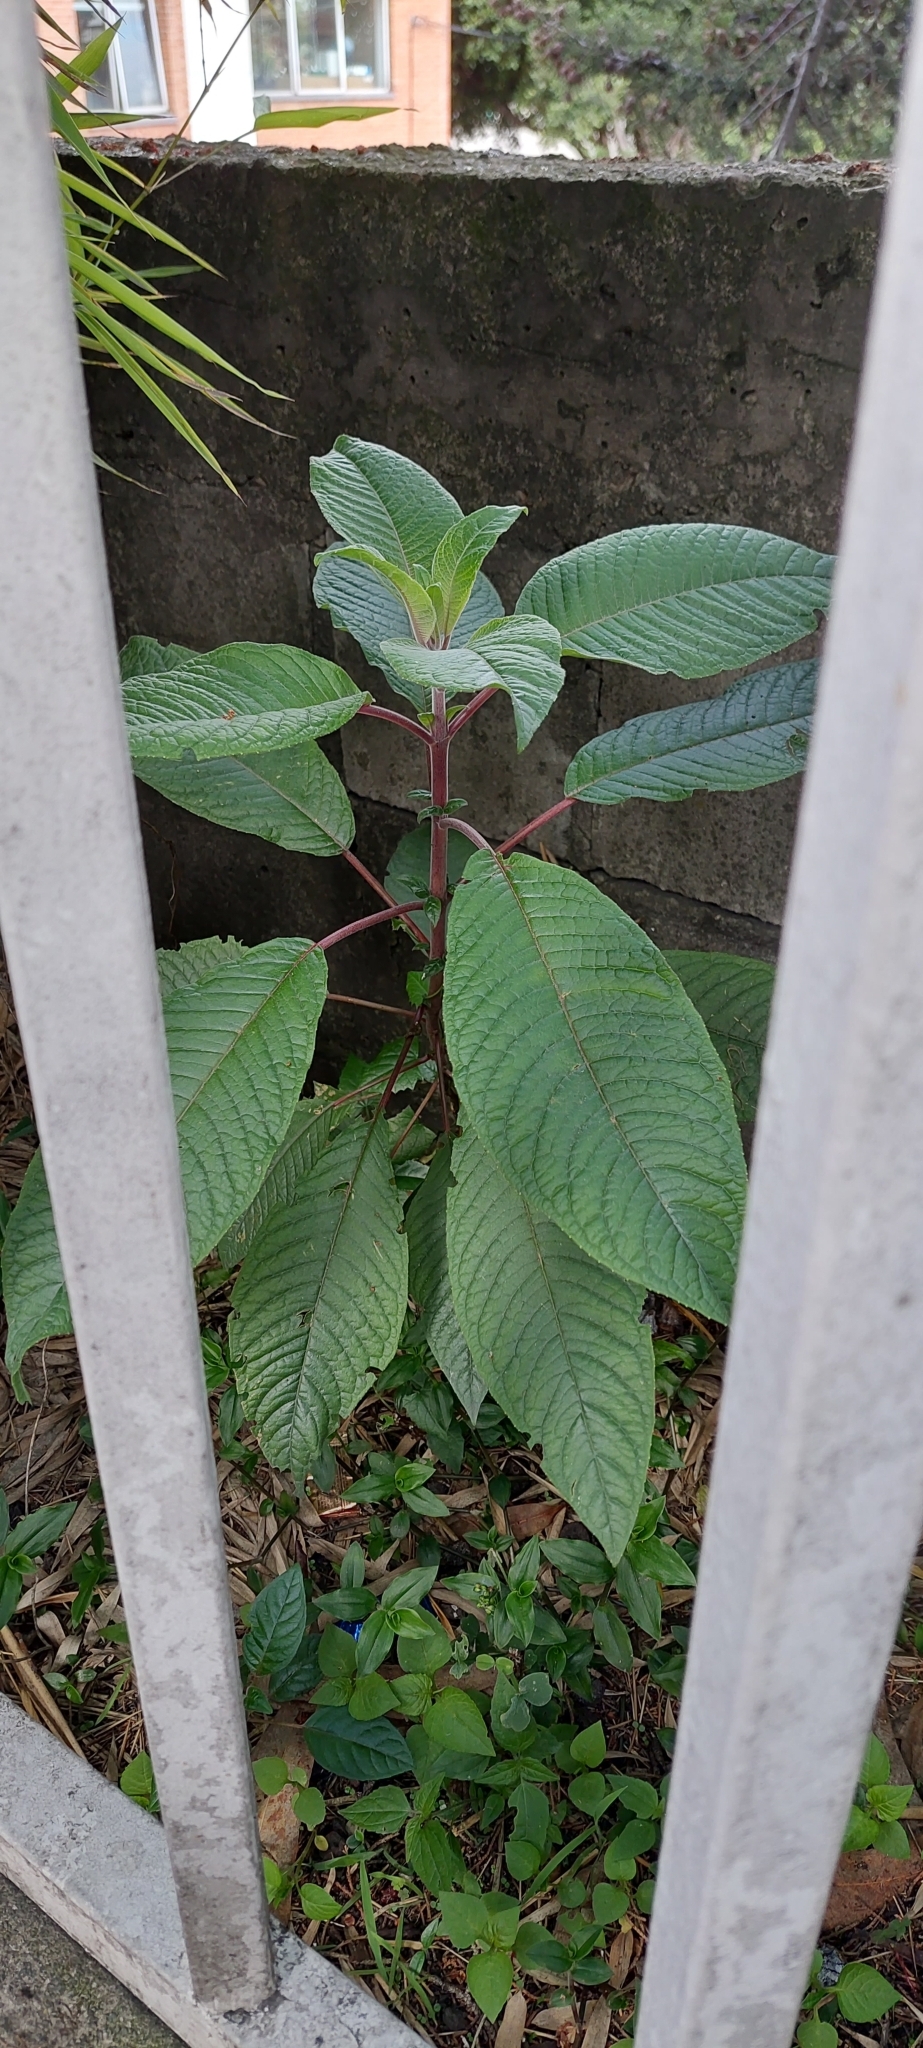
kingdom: Plantae
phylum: Tracheophyta
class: Magnoliopsida
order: Myrtales
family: Onagraceae
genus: Fuchsia
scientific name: Fuchsia boliviana
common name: Bolivian fuchsia
